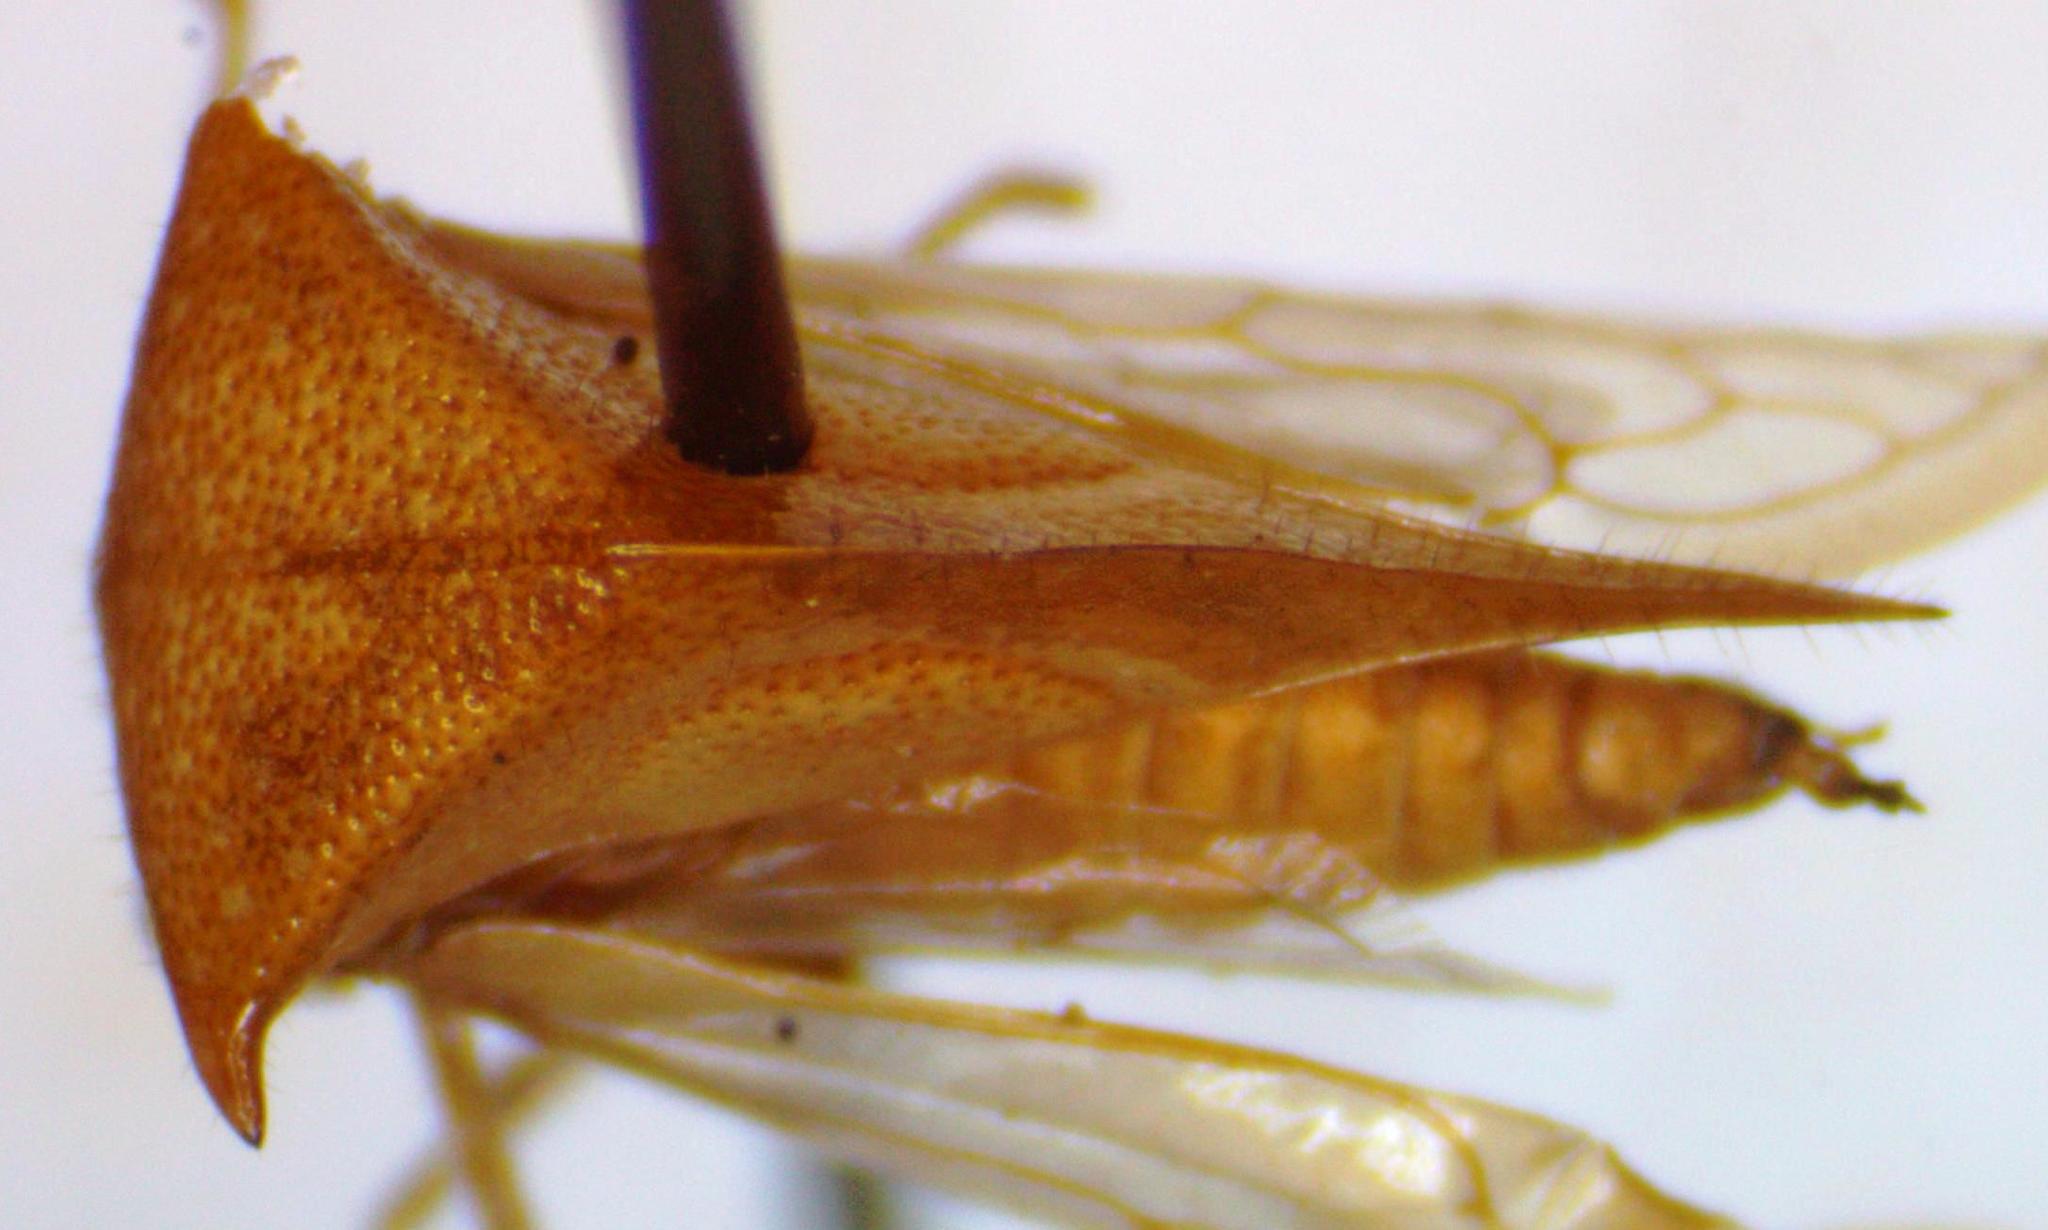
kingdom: Animalia
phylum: Arthropoda
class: Insecta
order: Hemiptera
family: Membracidae
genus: Stictolobus
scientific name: Stictolobus minor
